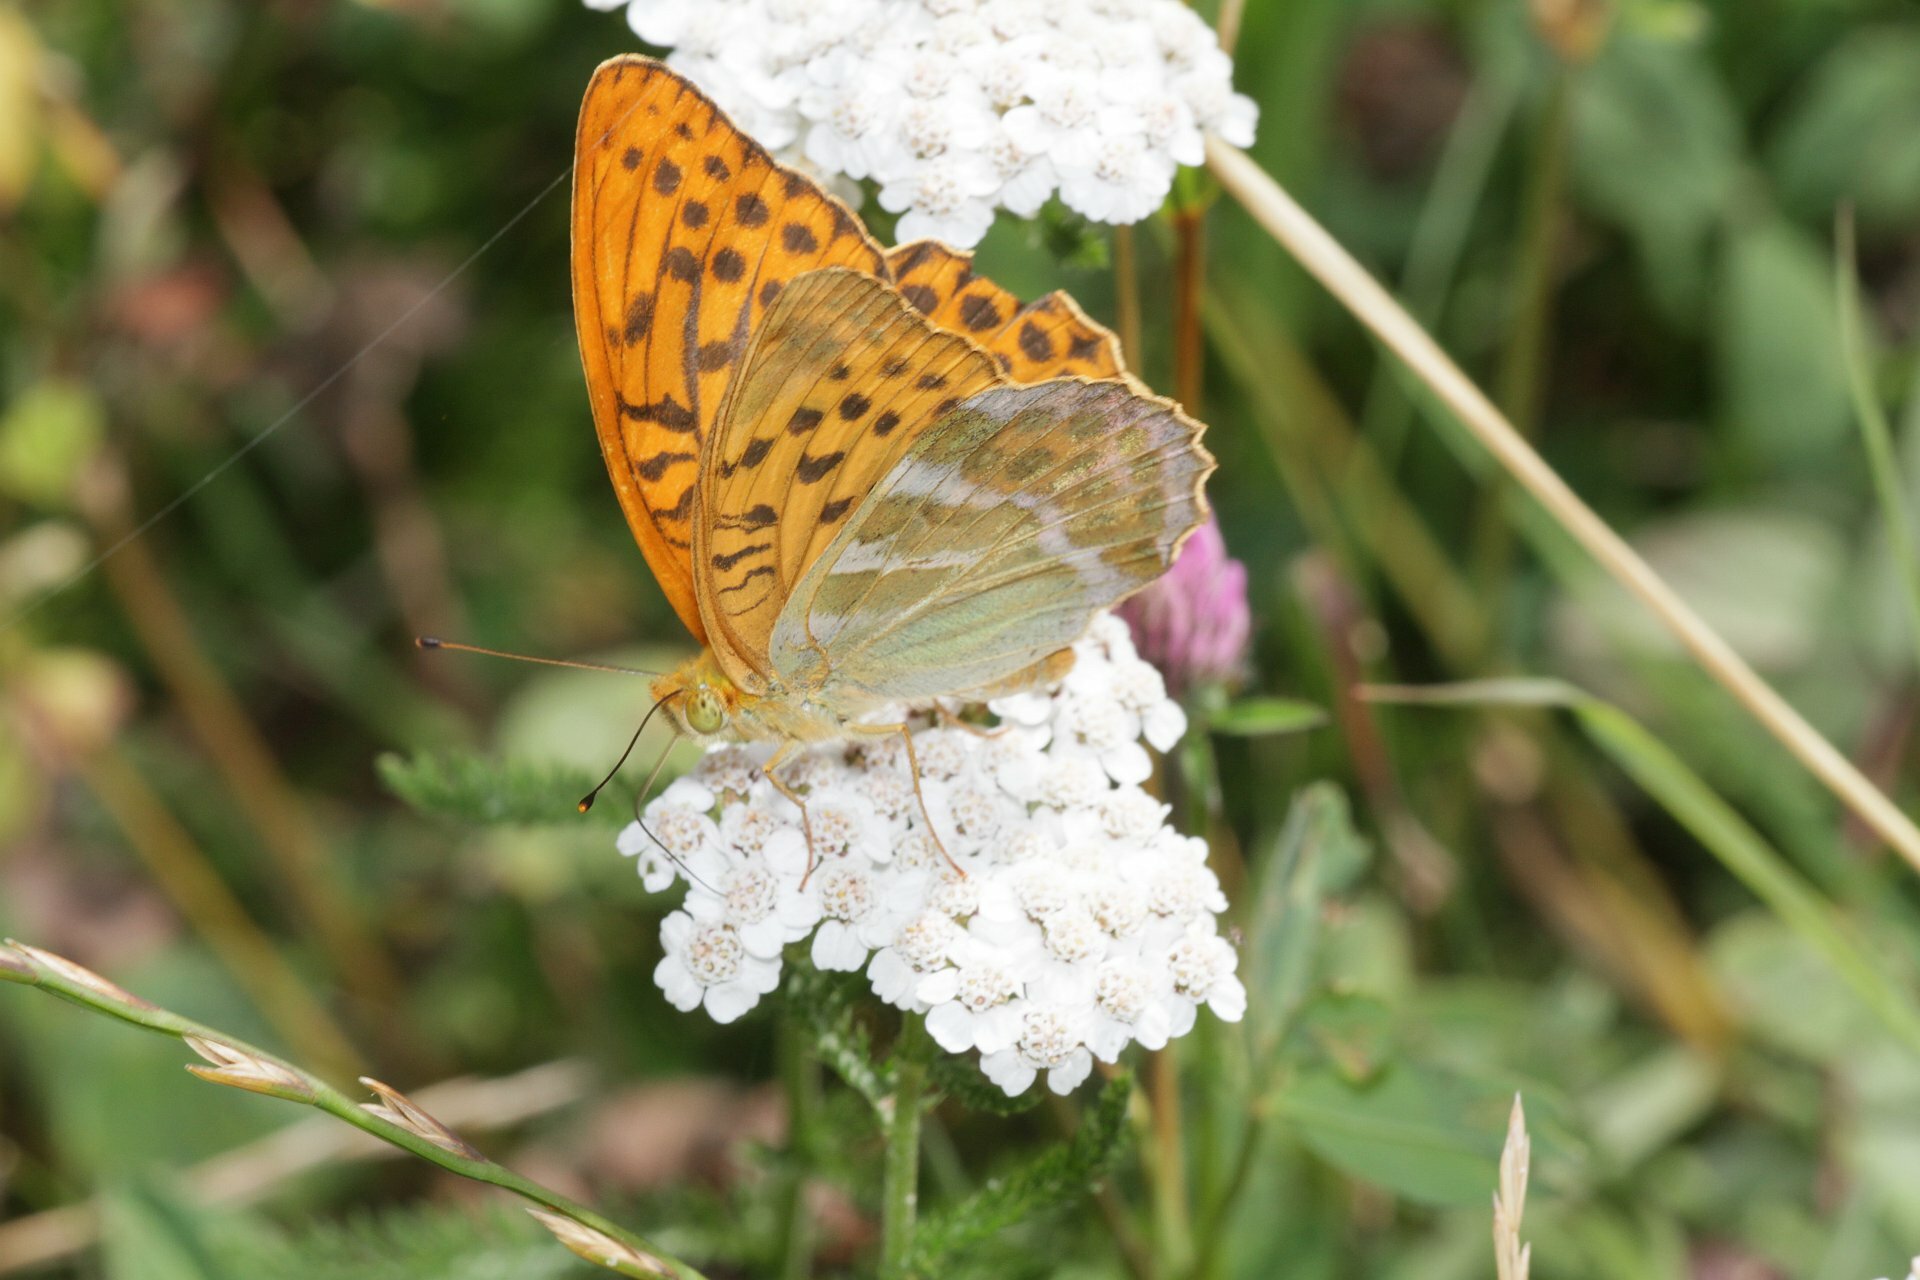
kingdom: Animalia
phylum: Arthropoda
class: Insecta
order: Lepidoptera
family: Nymphalidae
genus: Argynnis
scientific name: Argynnis paphia
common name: Silver-washed fritillary
